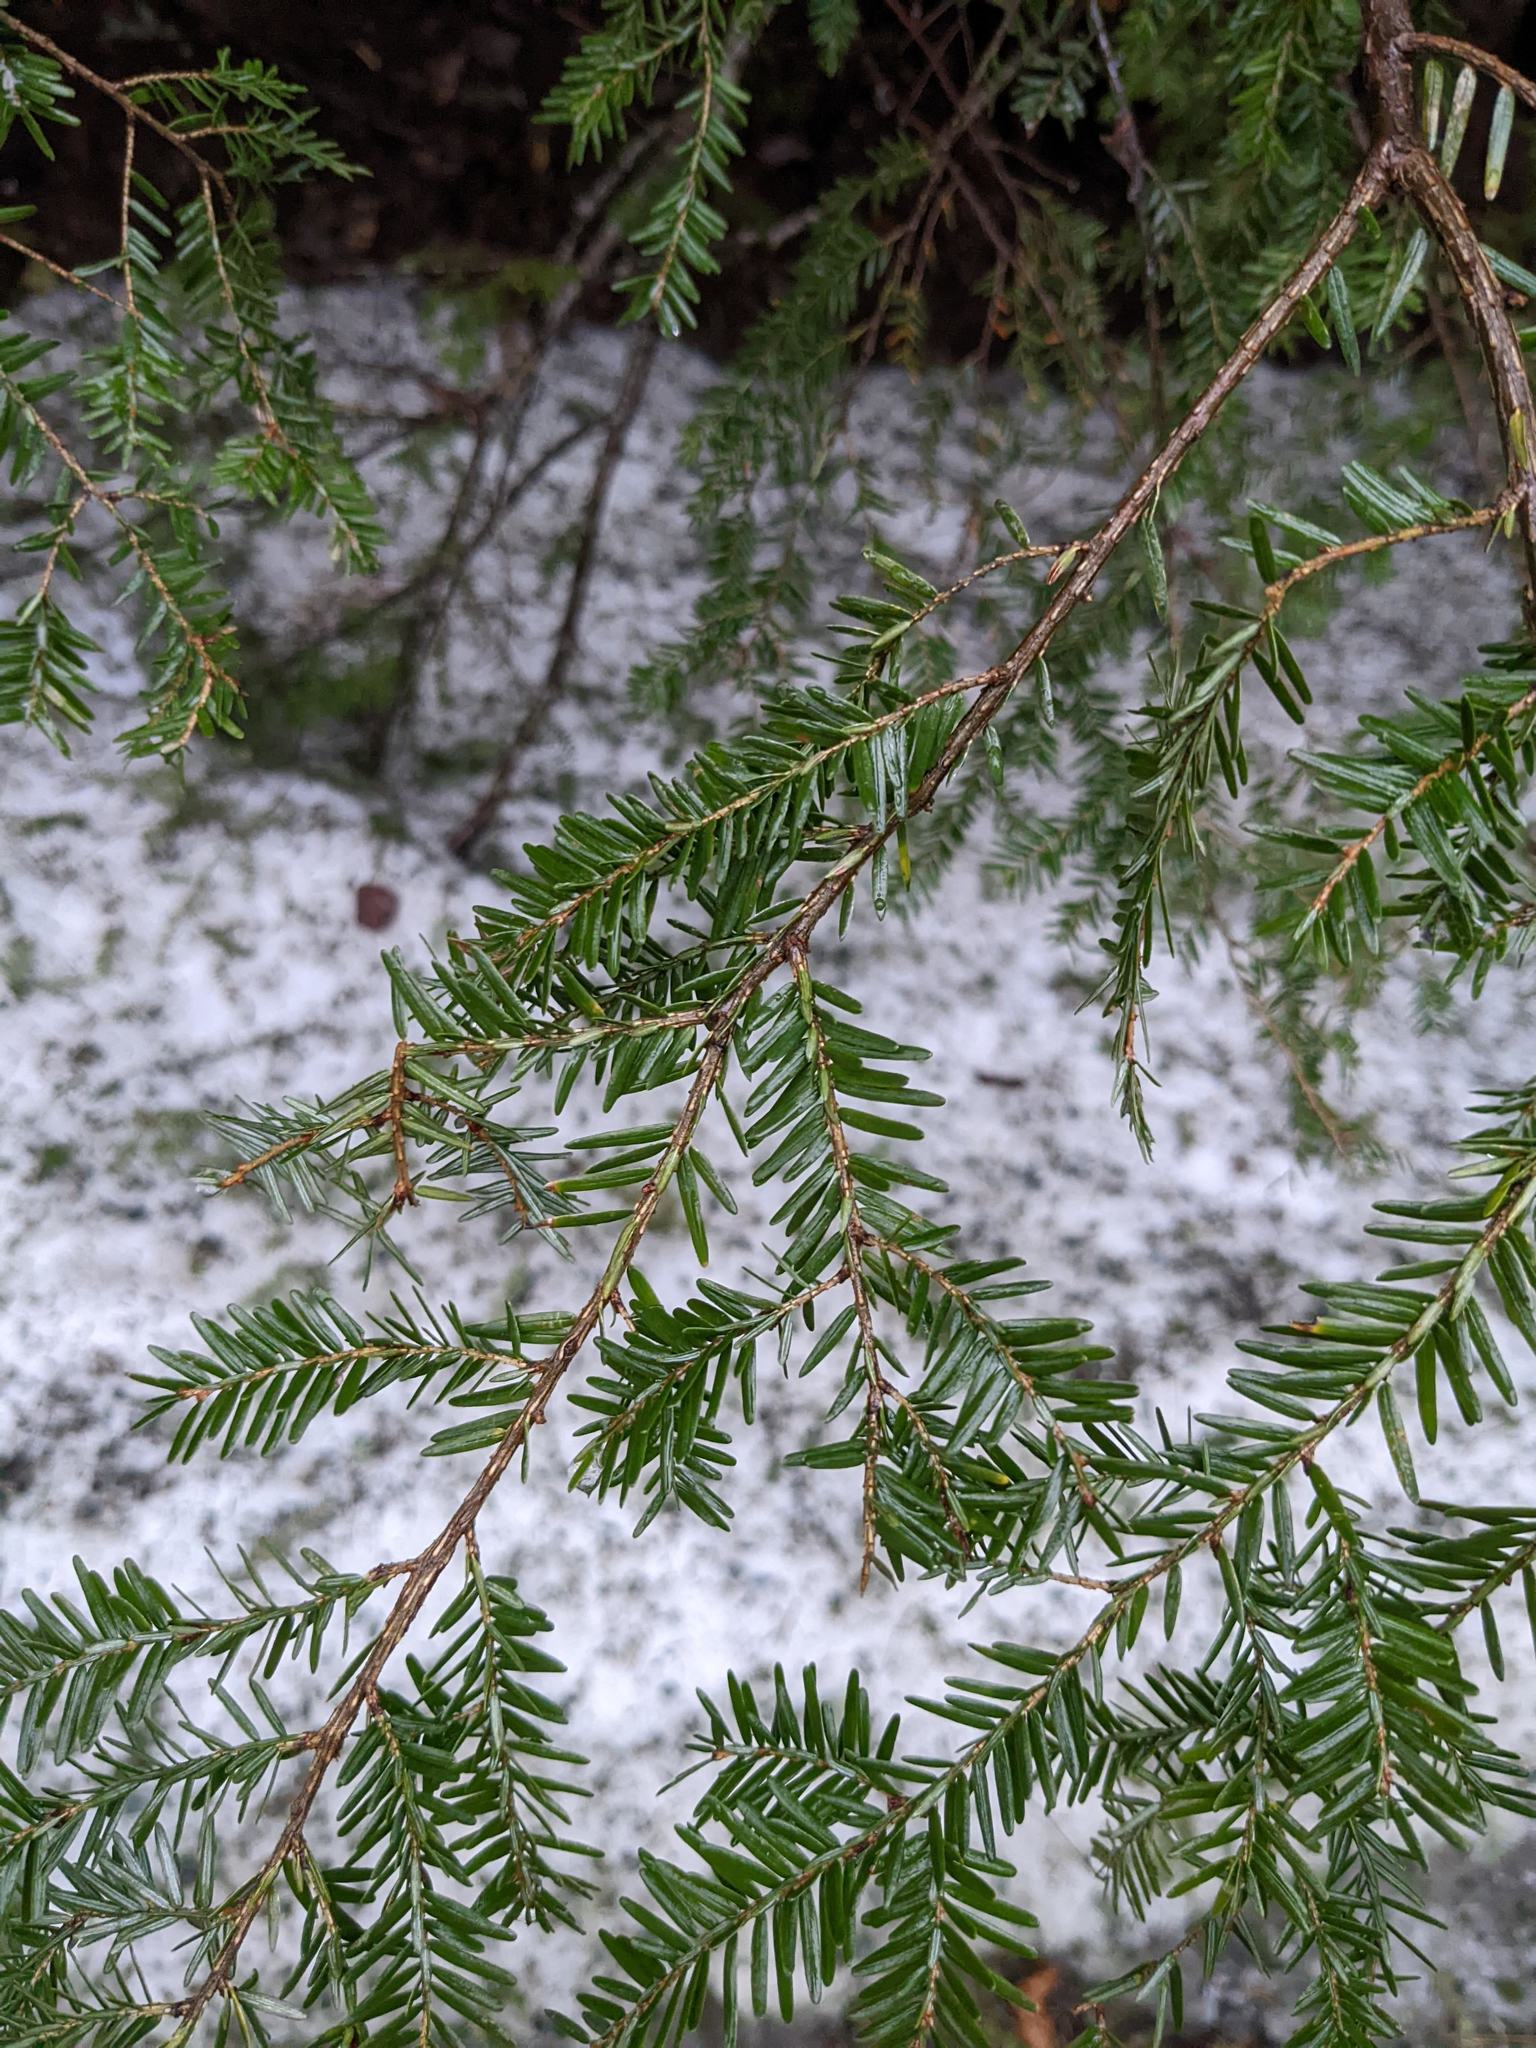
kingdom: Plantae
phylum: Tracheophyta
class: Pinopsida
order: Pinales
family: Pinaceae
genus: Tsuga
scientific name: Tsuga canadensis
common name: Eastern hemlock
